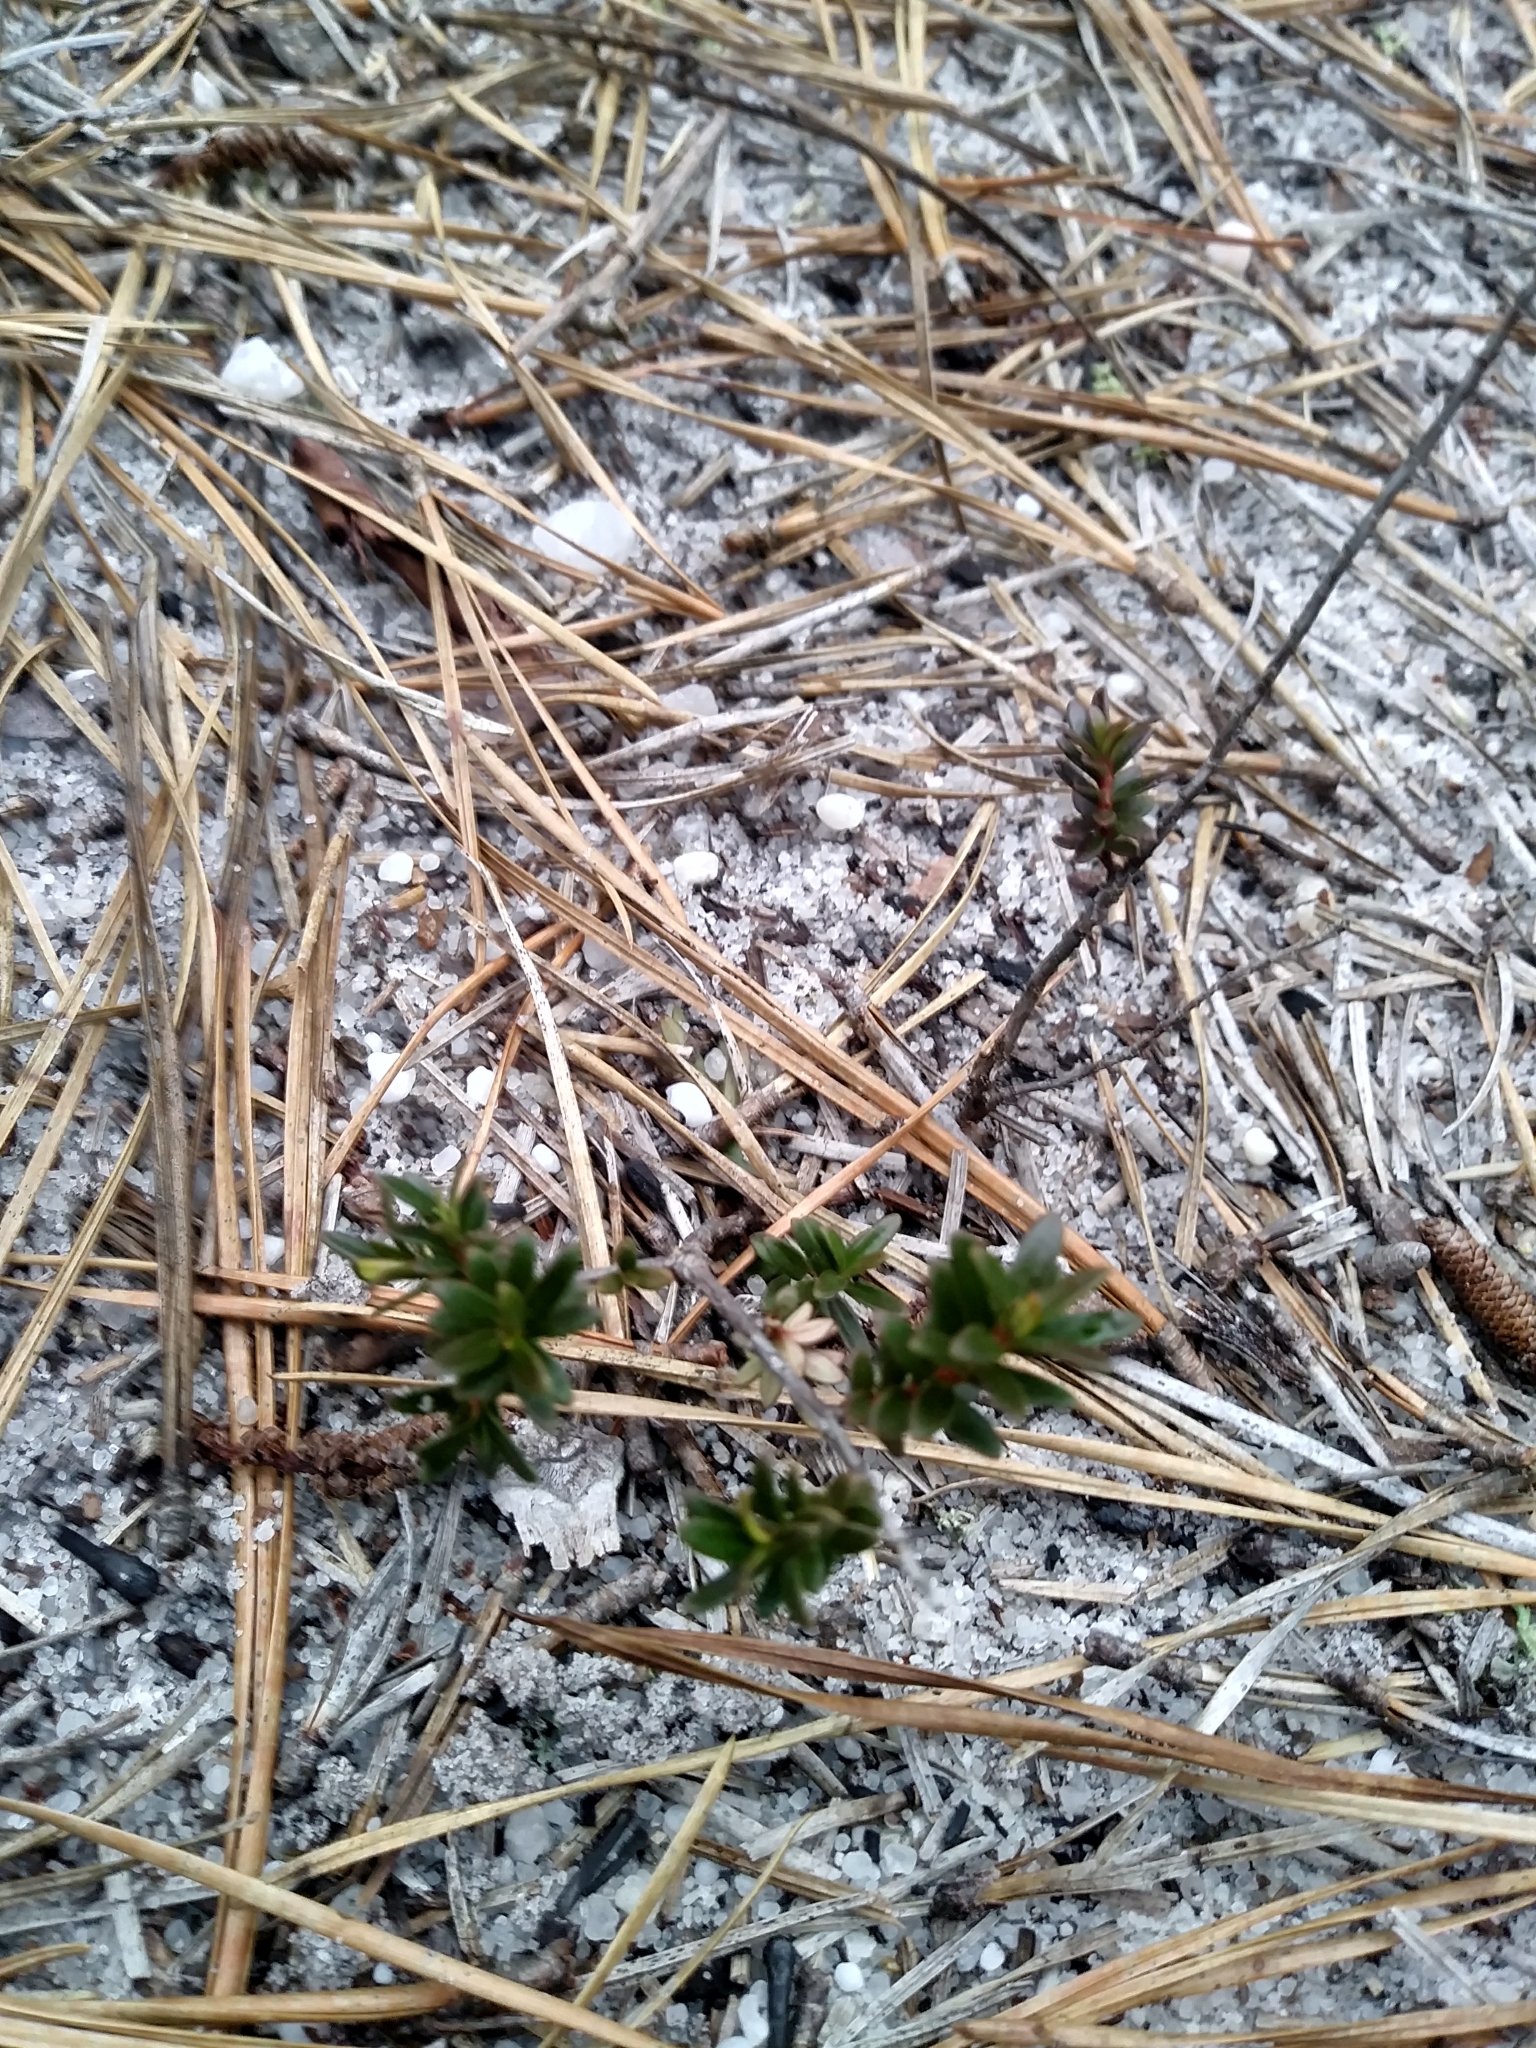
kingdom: Plantae
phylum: Tracheophyta
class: Magnoliopsida
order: Ericales
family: Ericaceae
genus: Kalmia
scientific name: Kalmia buxifolia
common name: Sandmyrtle
